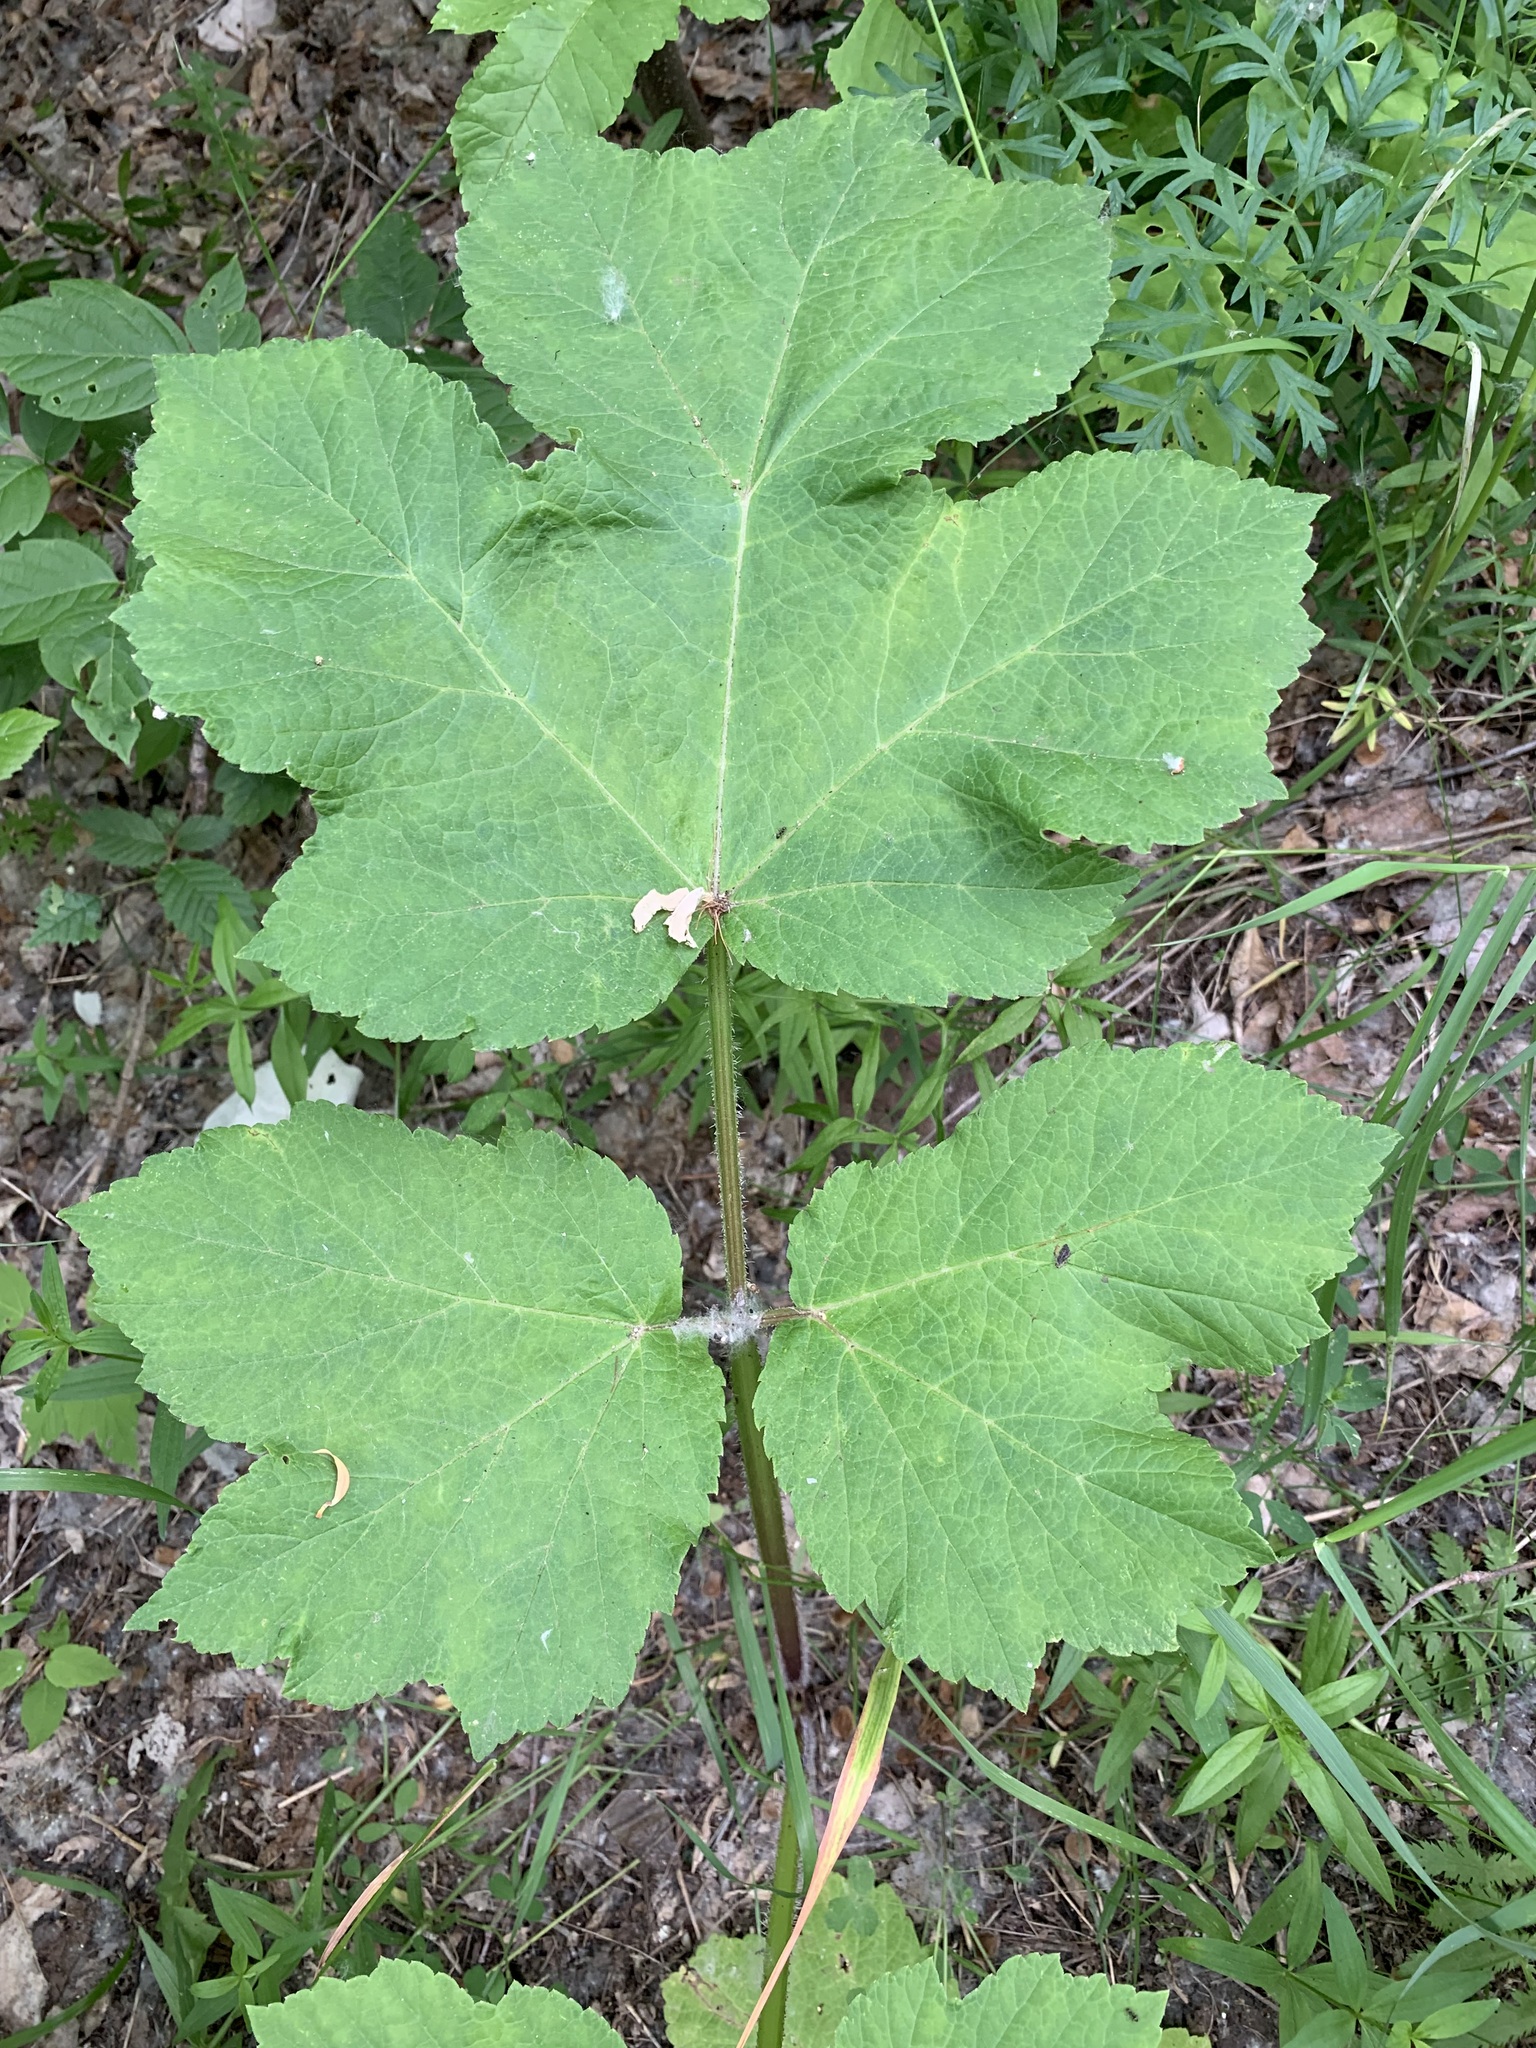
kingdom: Plantae
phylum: Tracheophyta
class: Magnoliopsida
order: Apiales
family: Apiaceae
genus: Heracleum
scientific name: Heracleum sphondylium
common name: Hogweed
